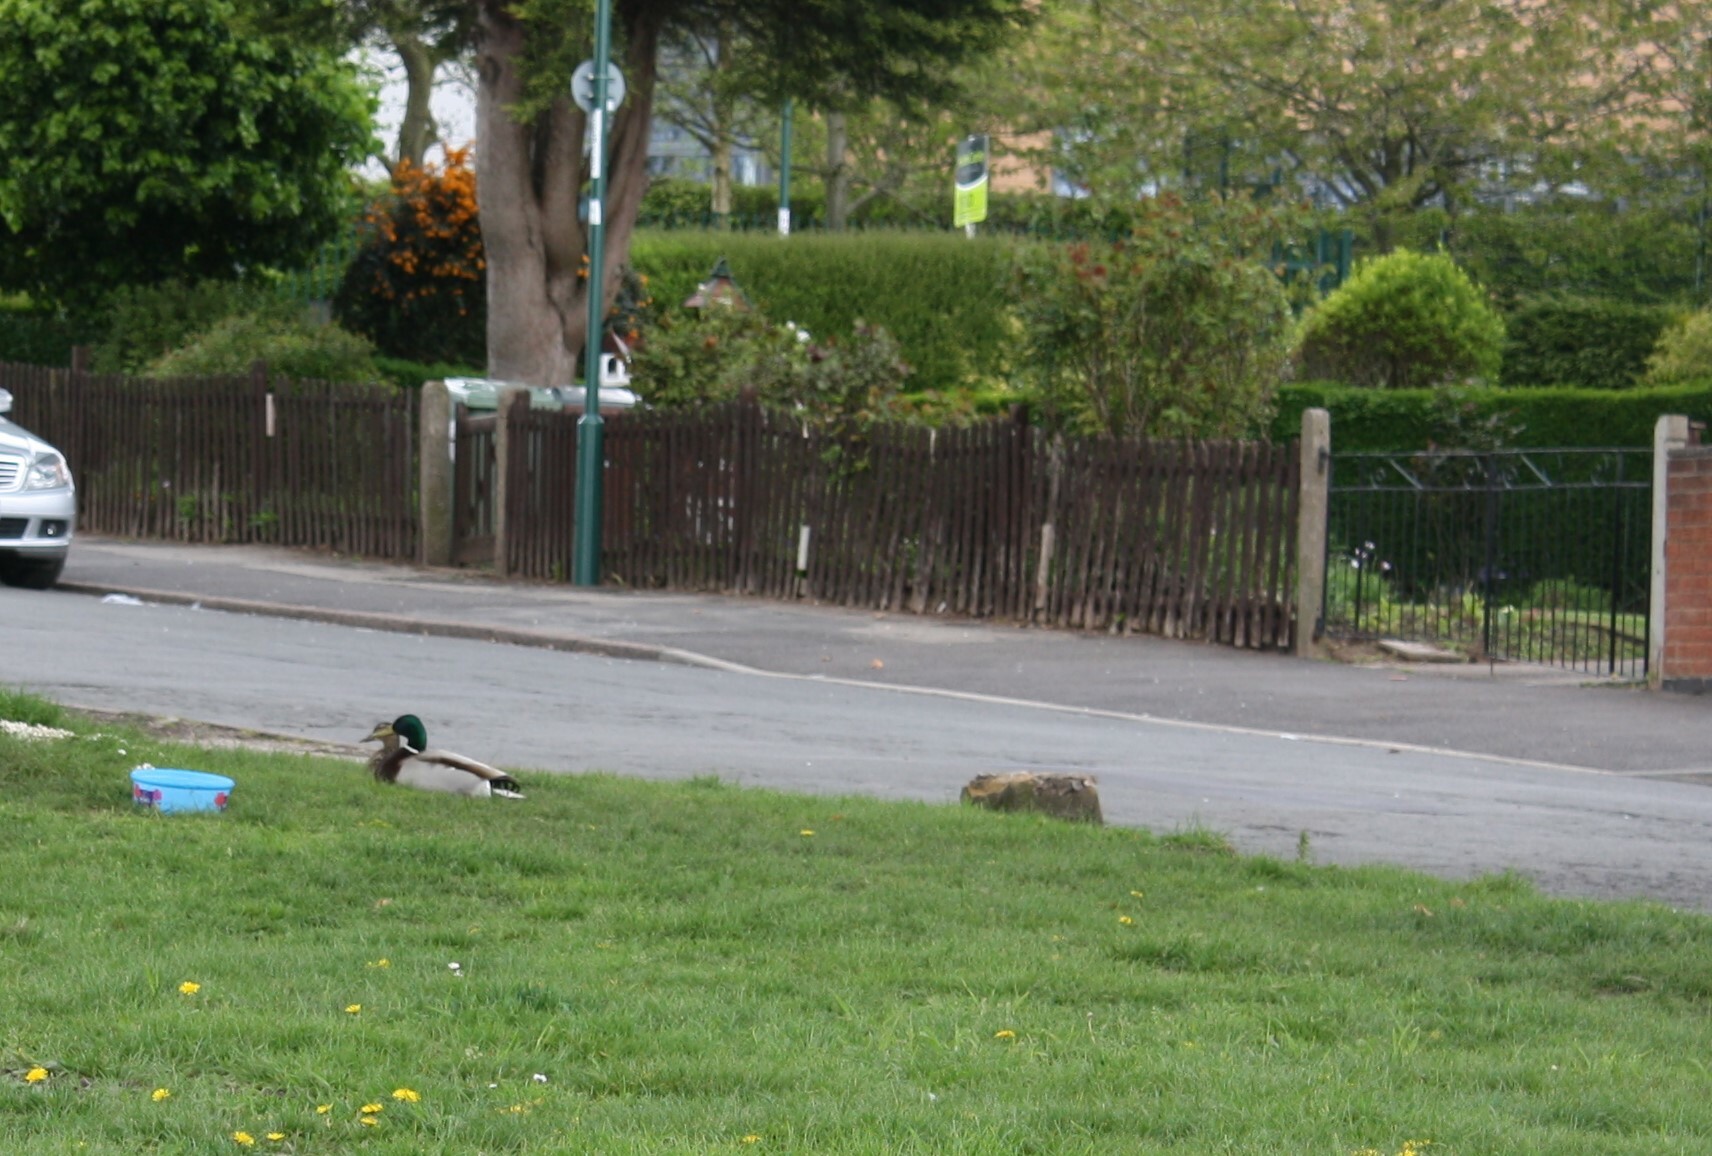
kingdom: Animalia
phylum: Chordata
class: Aves
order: Anseriformes
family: Anatidae
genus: Anas
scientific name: Anas platyrhynchos
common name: Mallard
